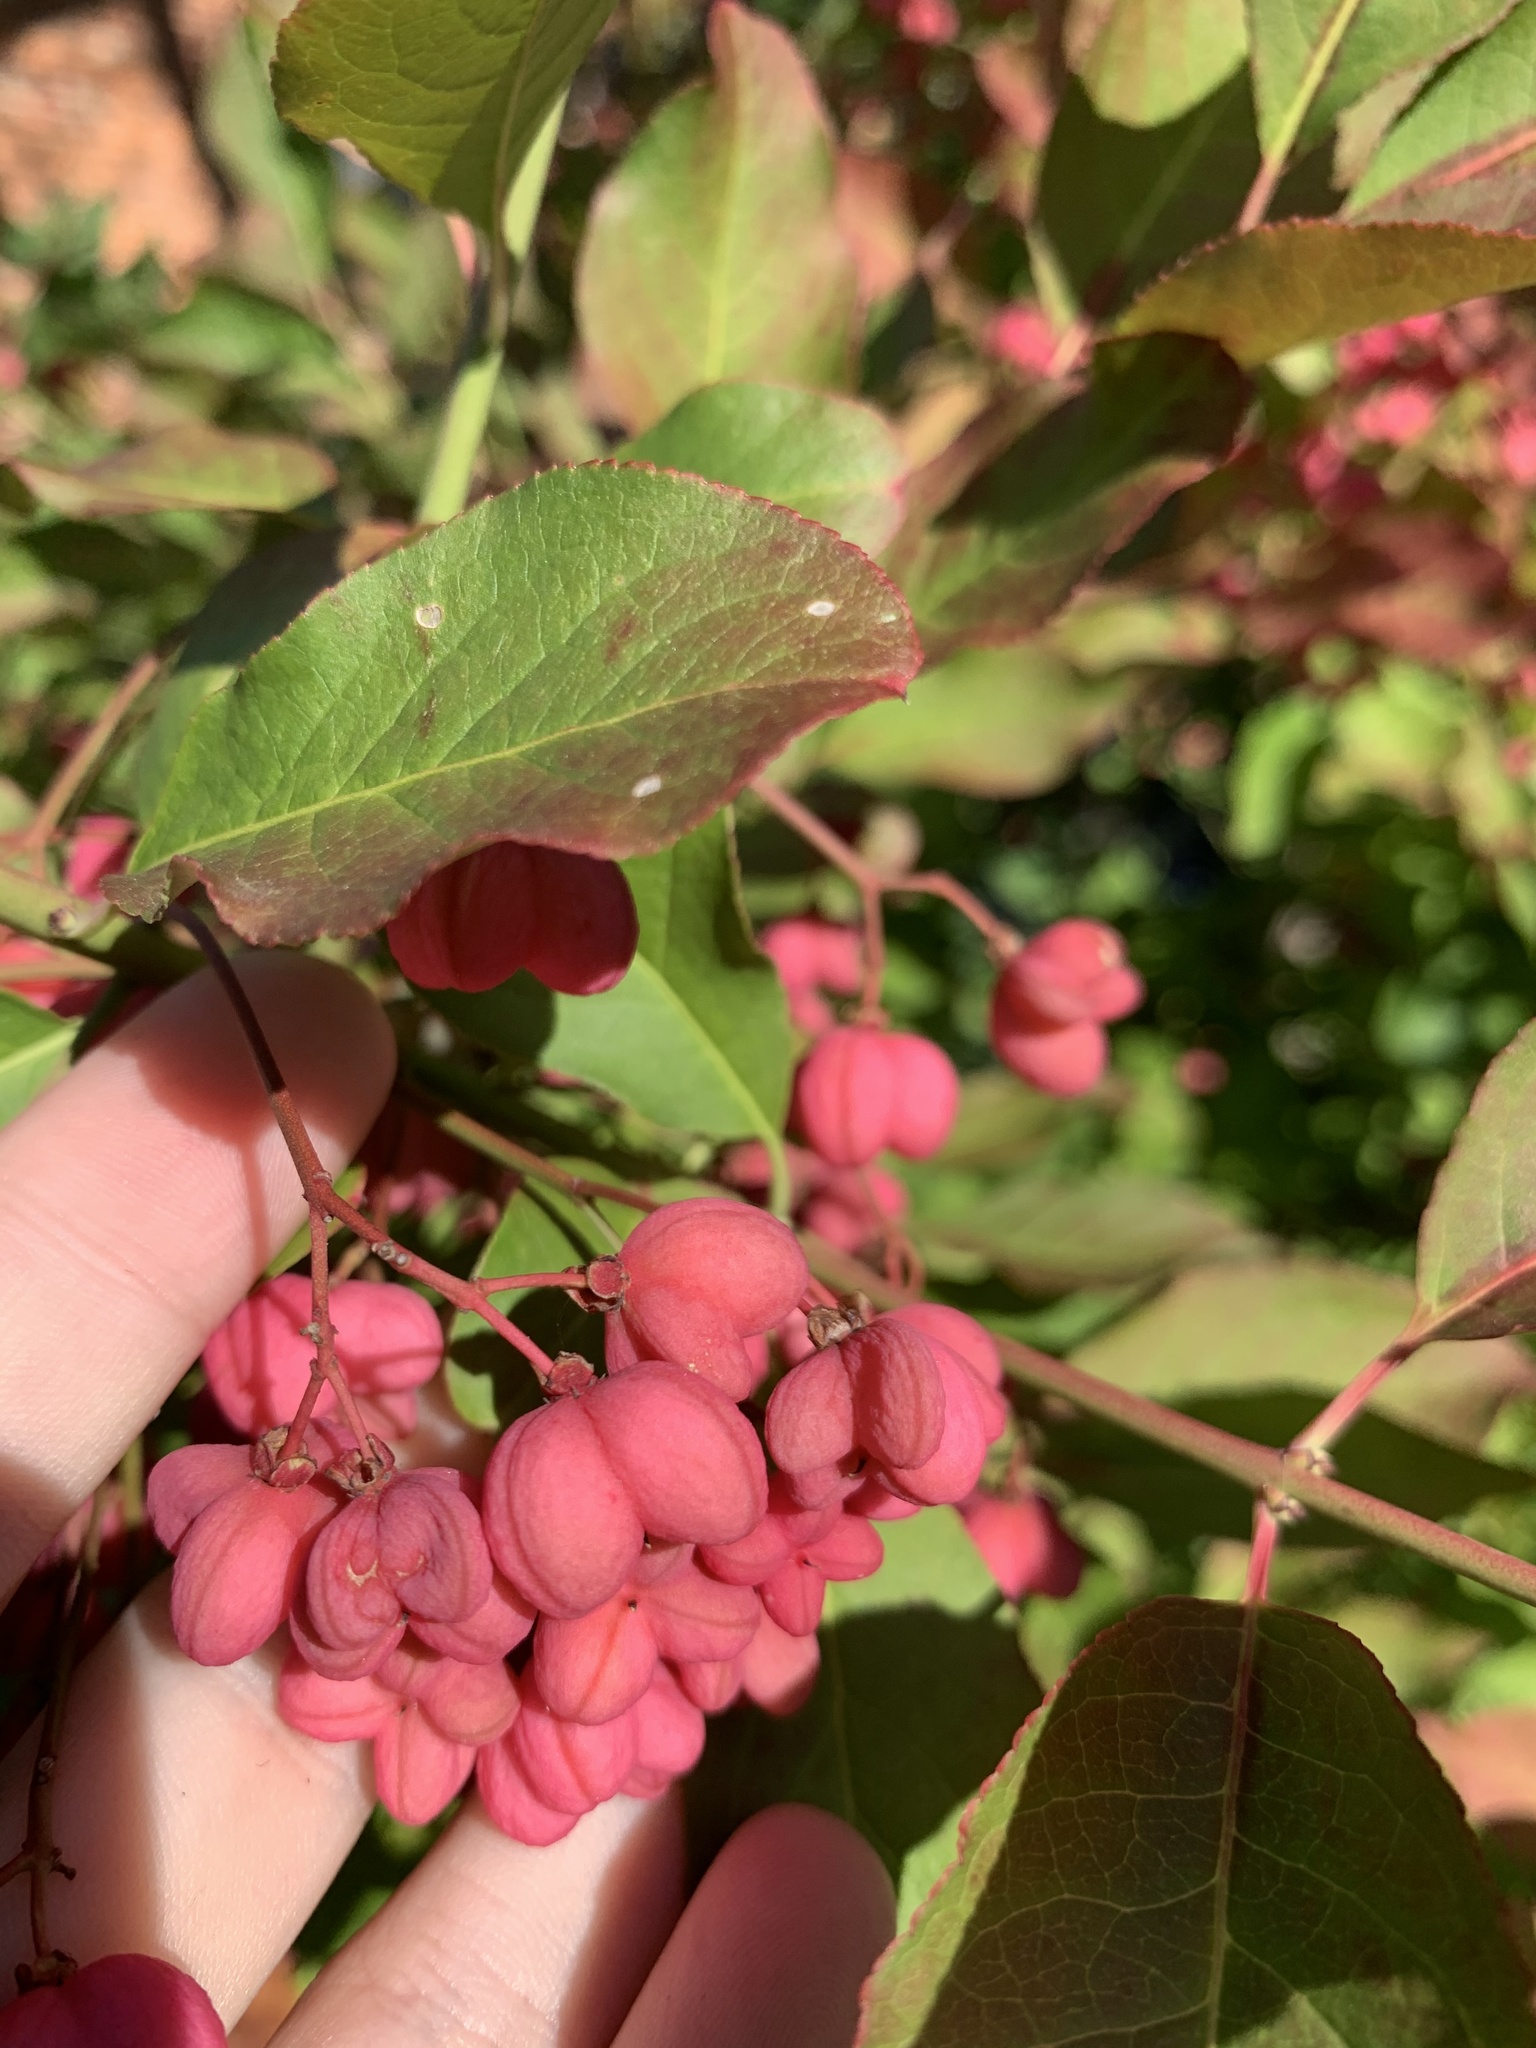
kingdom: Plantae
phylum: Tracheophyta
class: Magnoliopsida
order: Celastrales
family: Celastraceae
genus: Euonymus
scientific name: Euonymus europaeus
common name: Spindle
